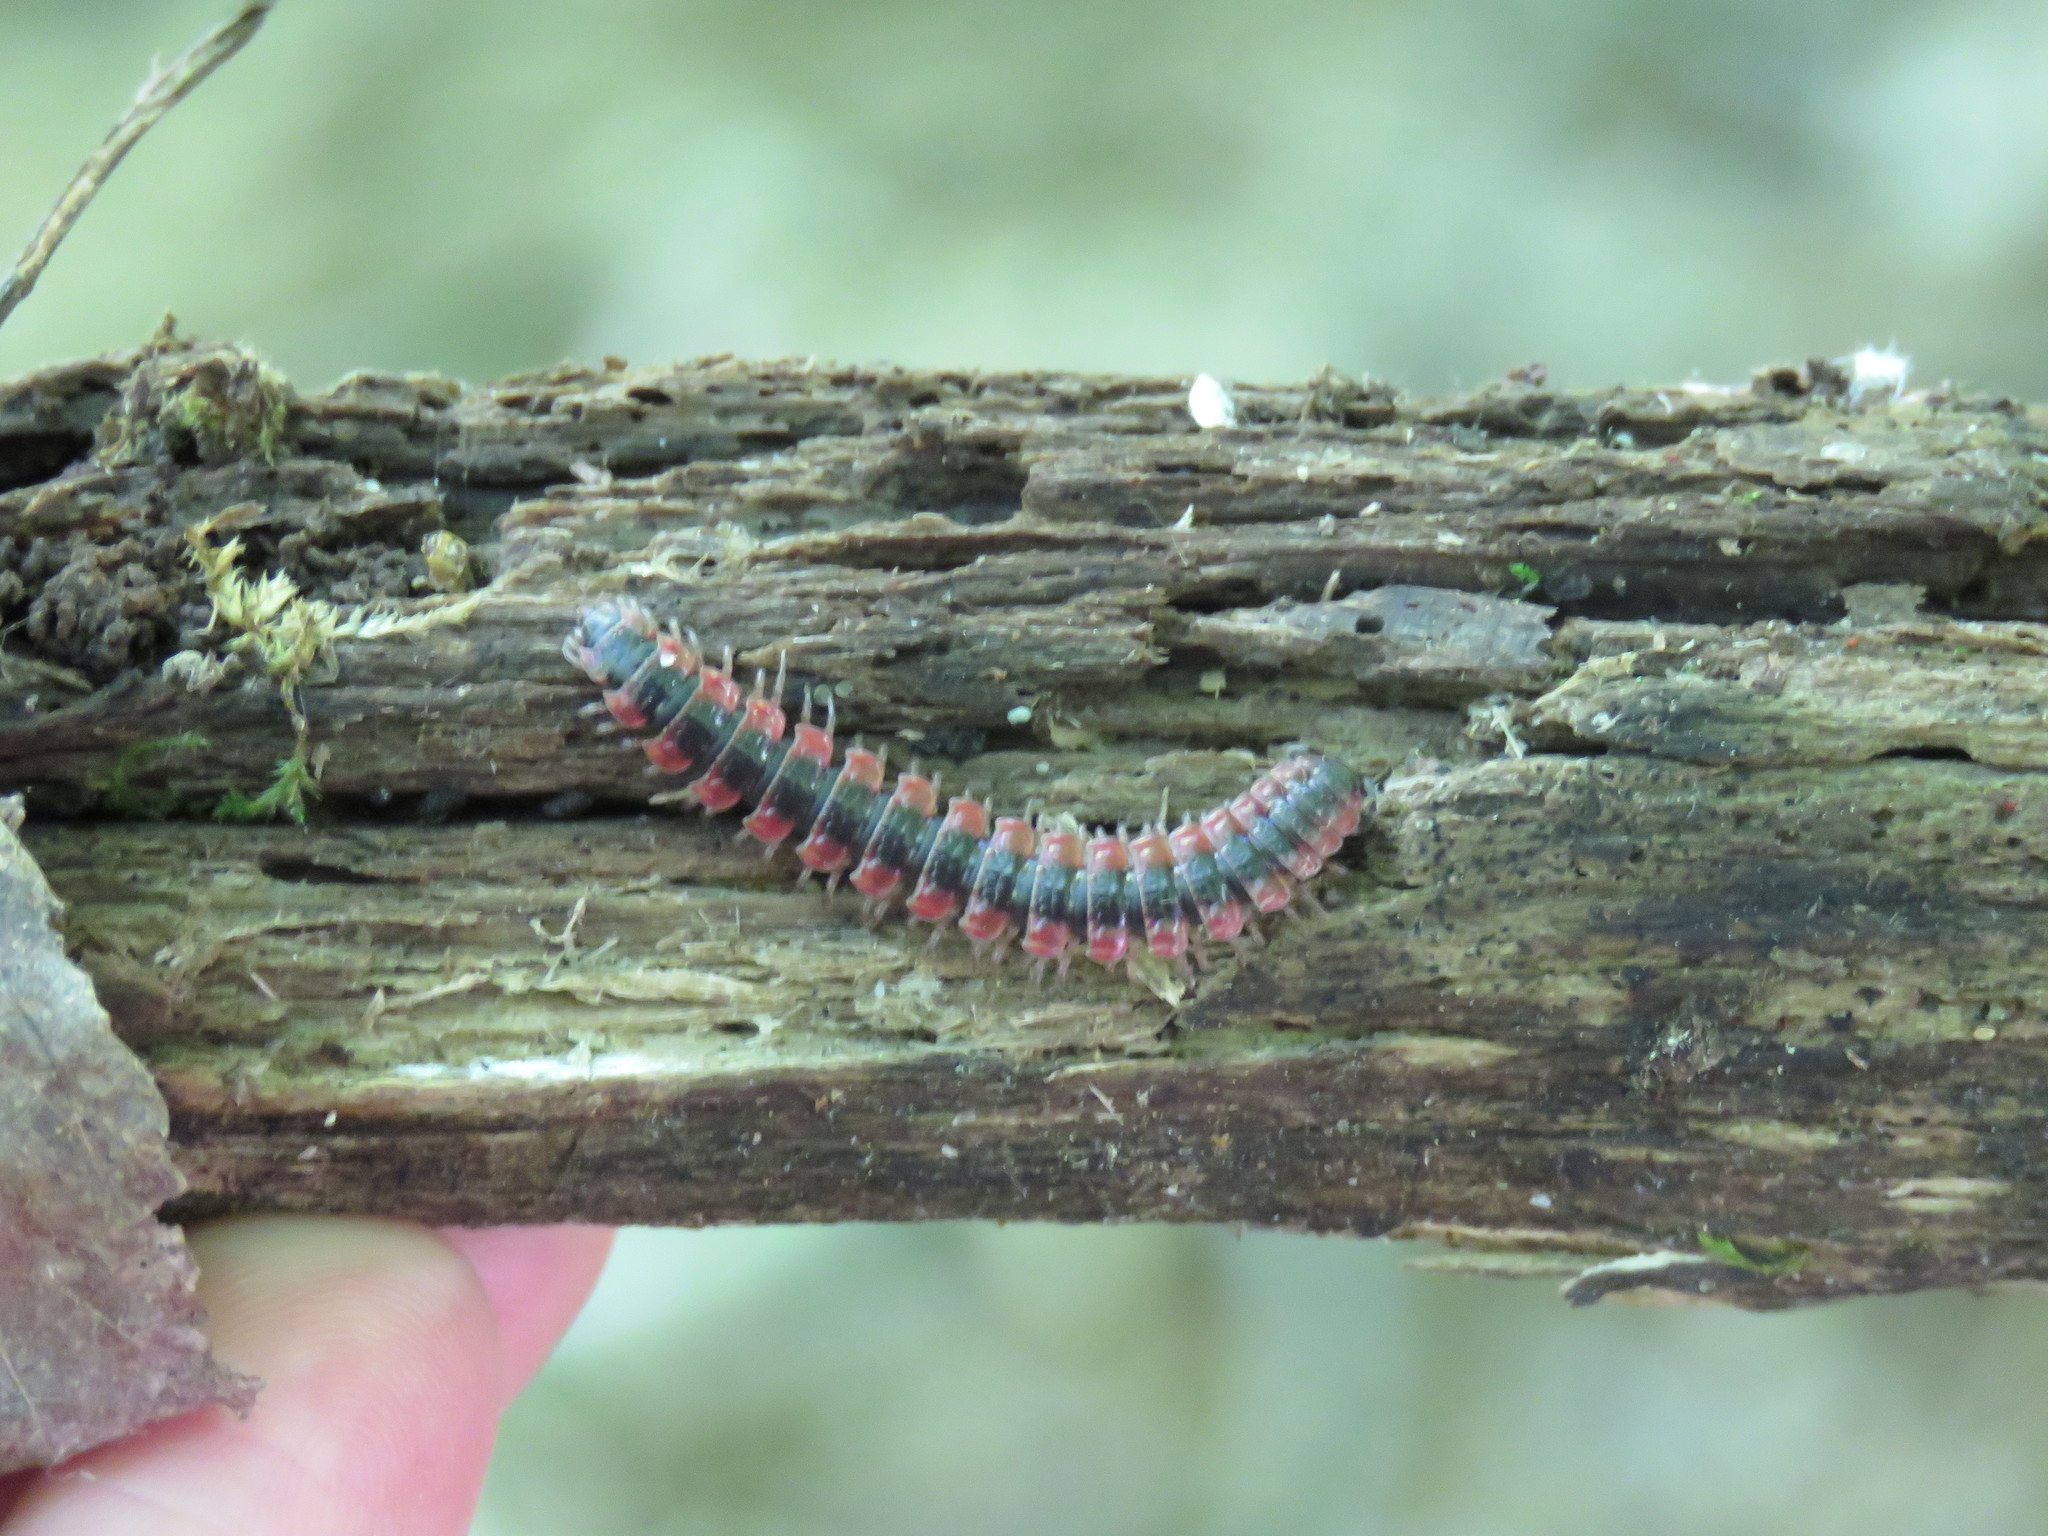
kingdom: Animalia
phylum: Arthropoda
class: Diplopoda
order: Polydesmida
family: Polydesmidae
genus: Pseudopolydesmus
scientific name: Pseudopolydesmus canadensis
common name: Canadian flat-back millipede
